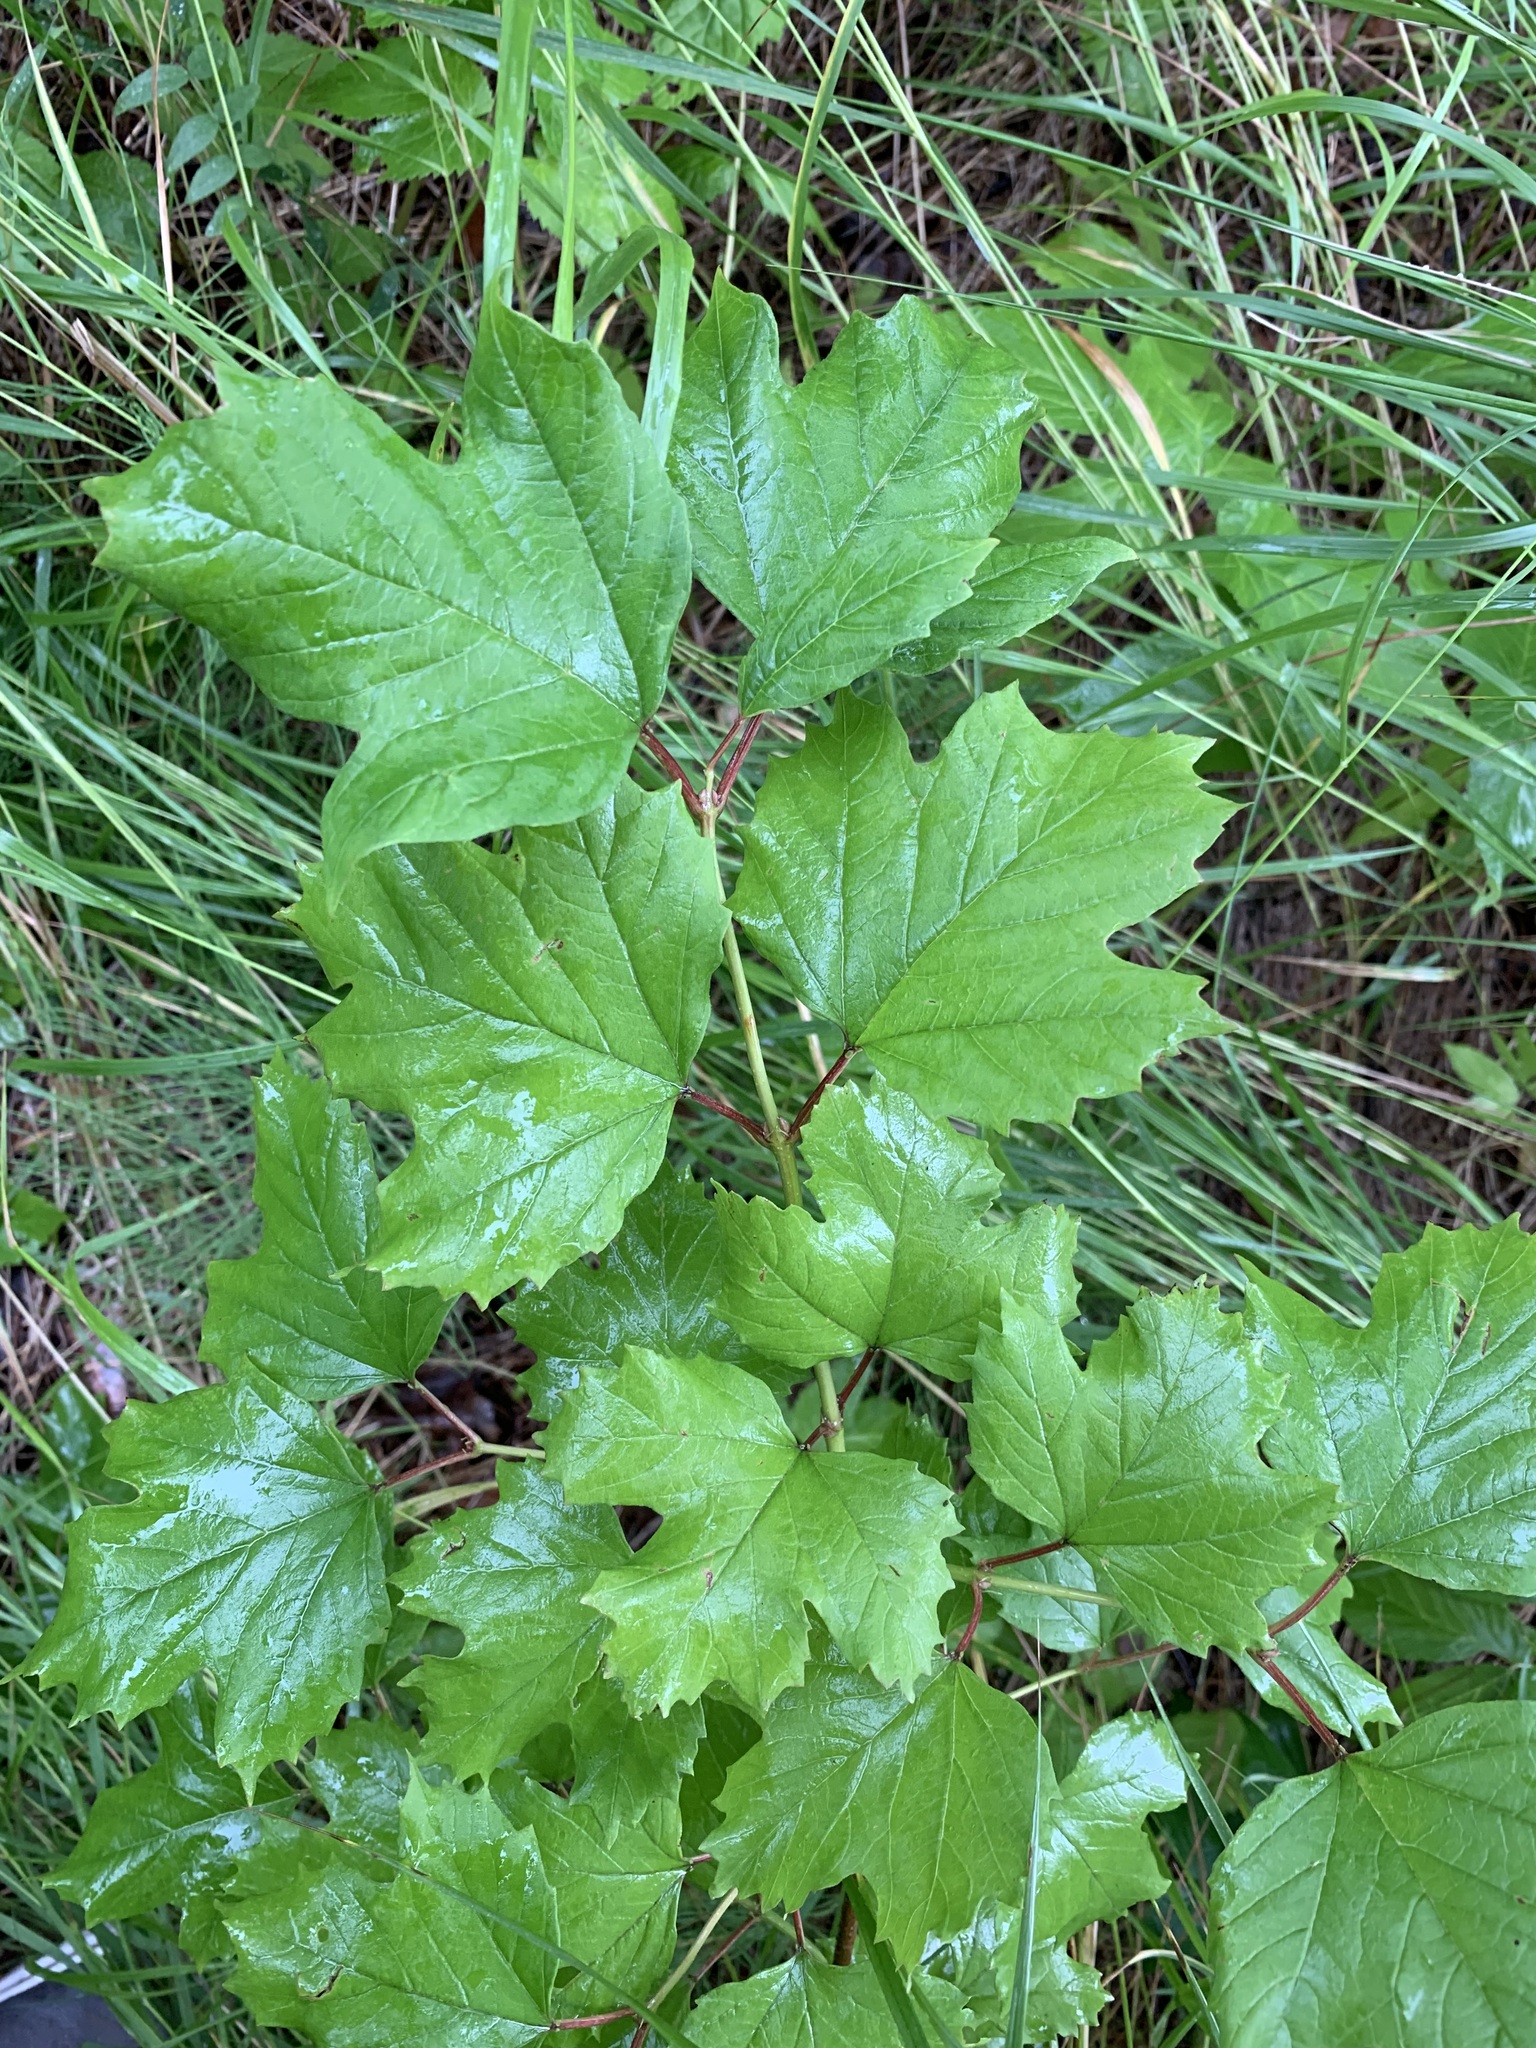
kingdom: Plantae
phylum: Tracheophyta
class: Magnoliopsida
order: Dipsacales
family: Viburnaceae
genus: Viburnum
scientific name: Viburnum opulus
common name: Guelder-rose
